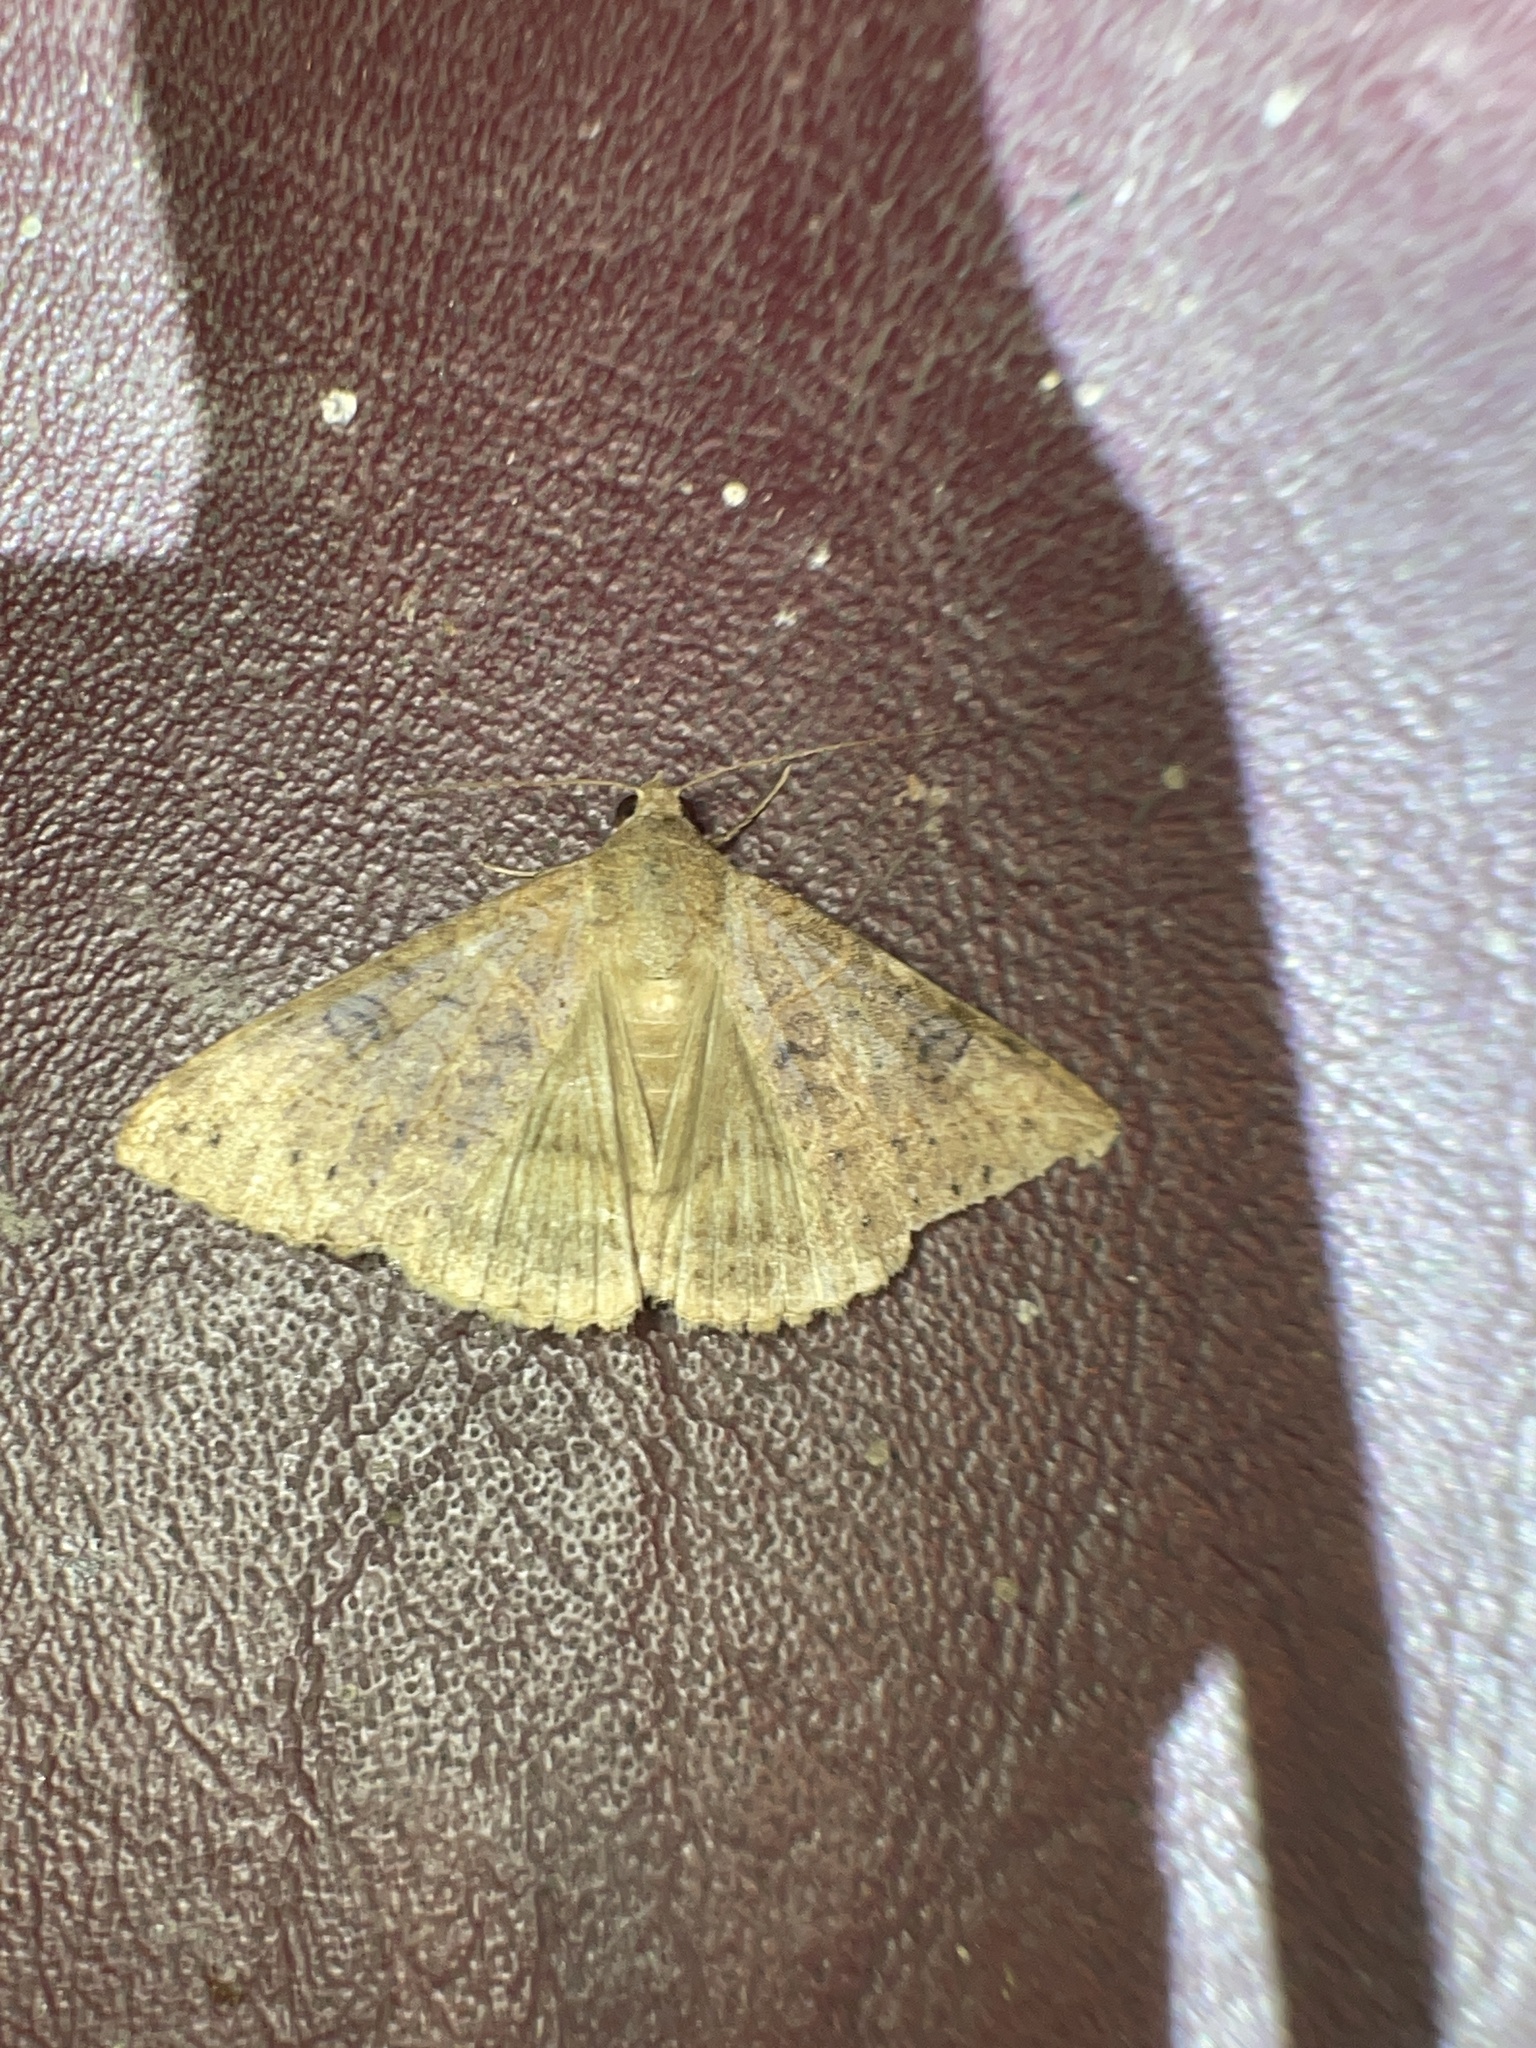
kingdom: Animalia
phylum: Arthropoda
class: Insecta
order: Lepidoptera
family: Erebidae
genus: Mocis
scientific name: Mocis latipes
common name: Striped grass looper
